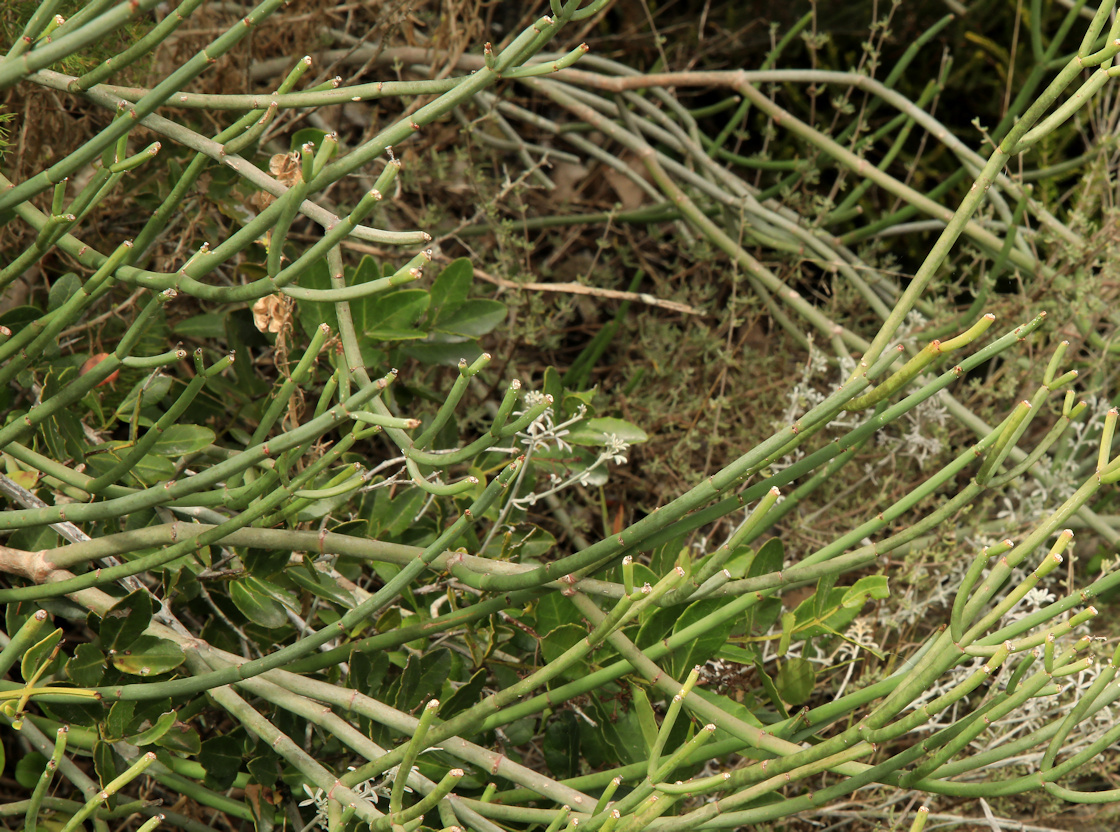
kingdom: Plantae
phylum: Tracheophyta
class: Magnoliopsida
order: Malpighiales
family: Euphorbiaceae
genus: Euphorbia
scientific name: Euphorbia burmanni
